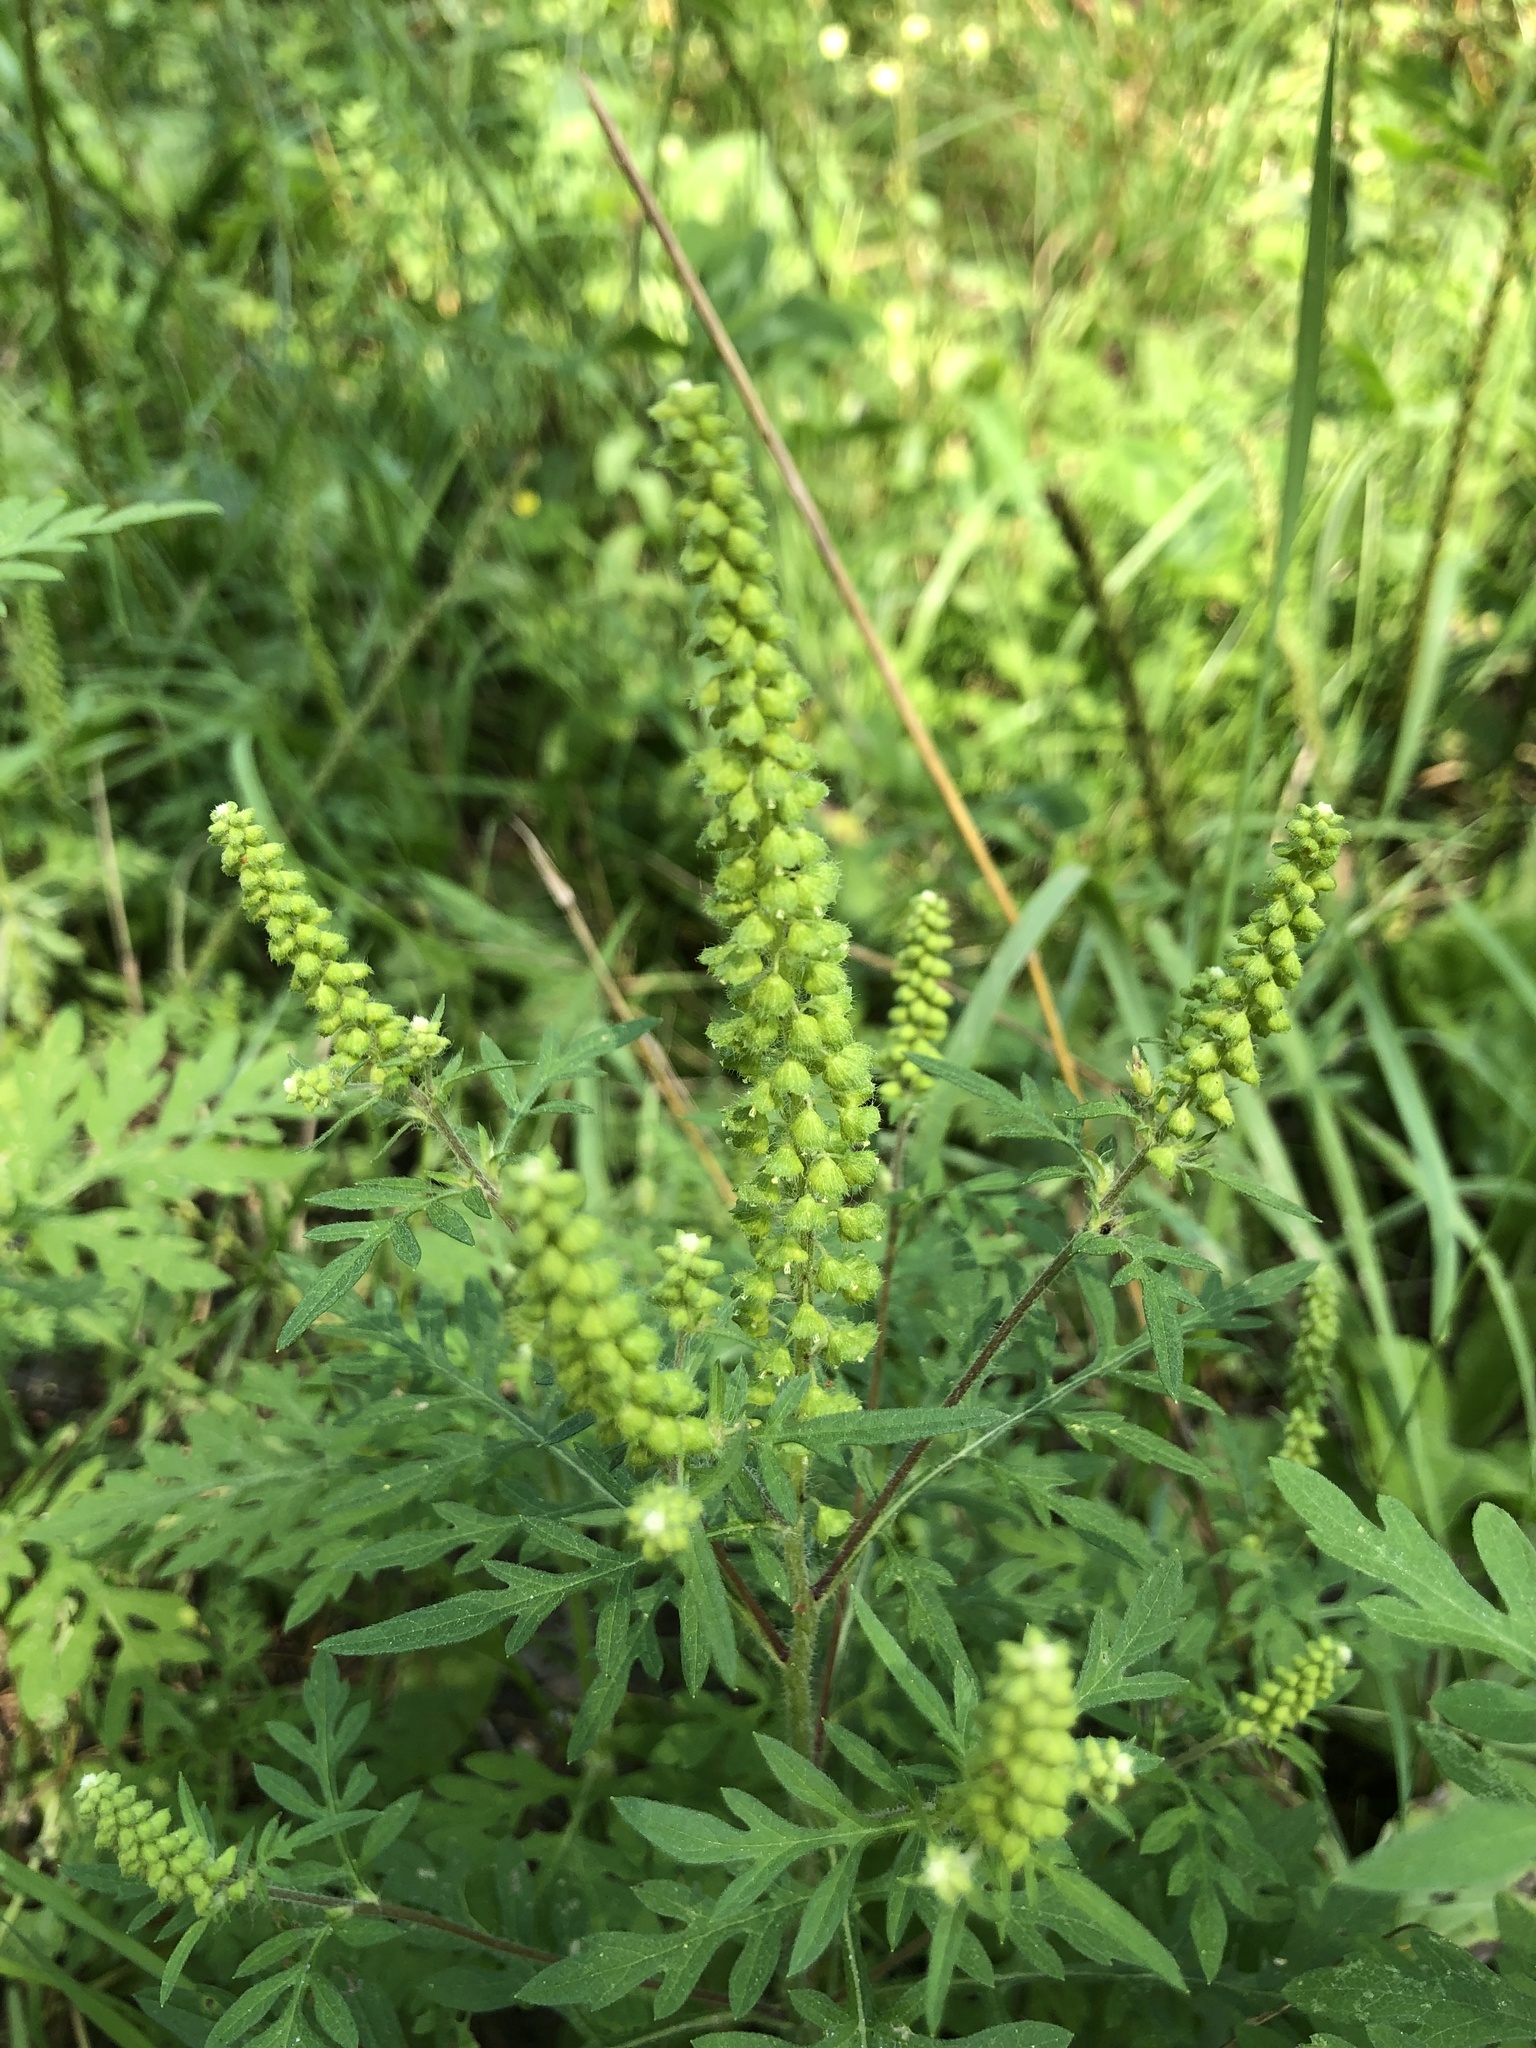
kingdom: Plantae
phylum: Tracheophyta
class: Magnoliopsida
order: Asterales
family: Asteraceae
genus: Ambrosia
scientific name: Ambrosia artemisiifolia
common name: Annual ragweed
